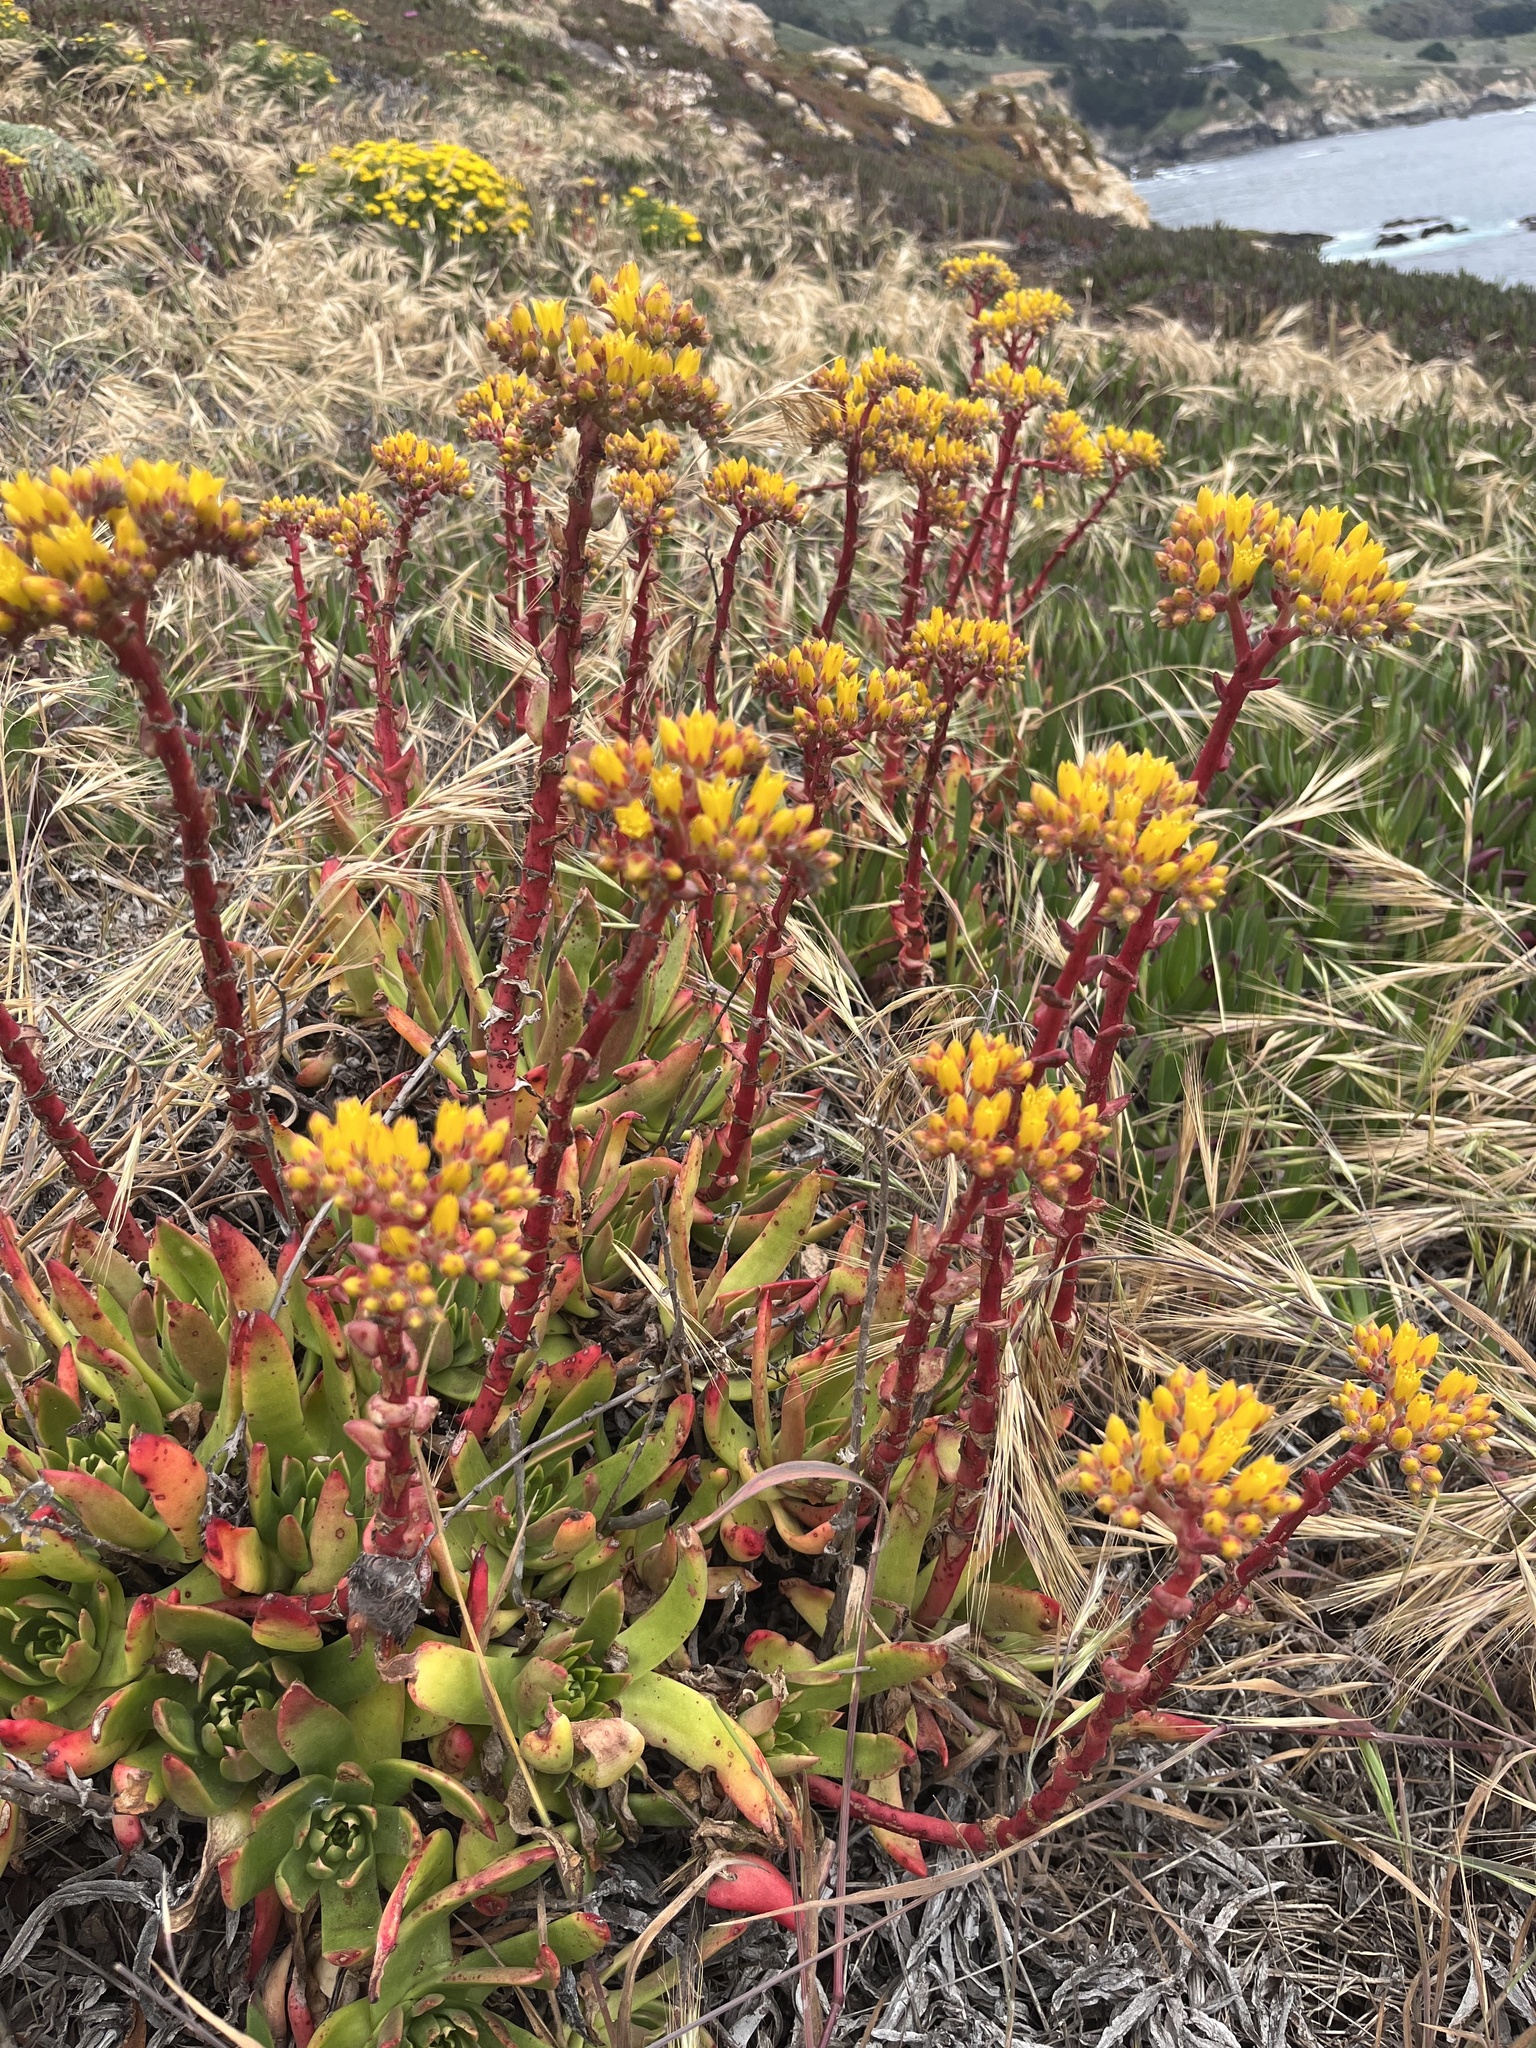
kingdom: Plantae
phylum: Tracheophyta
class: Magnoliopsida
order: Saxifragales
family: Crassulaceae
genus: Dudleya
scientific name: Dudleya caespitosa
